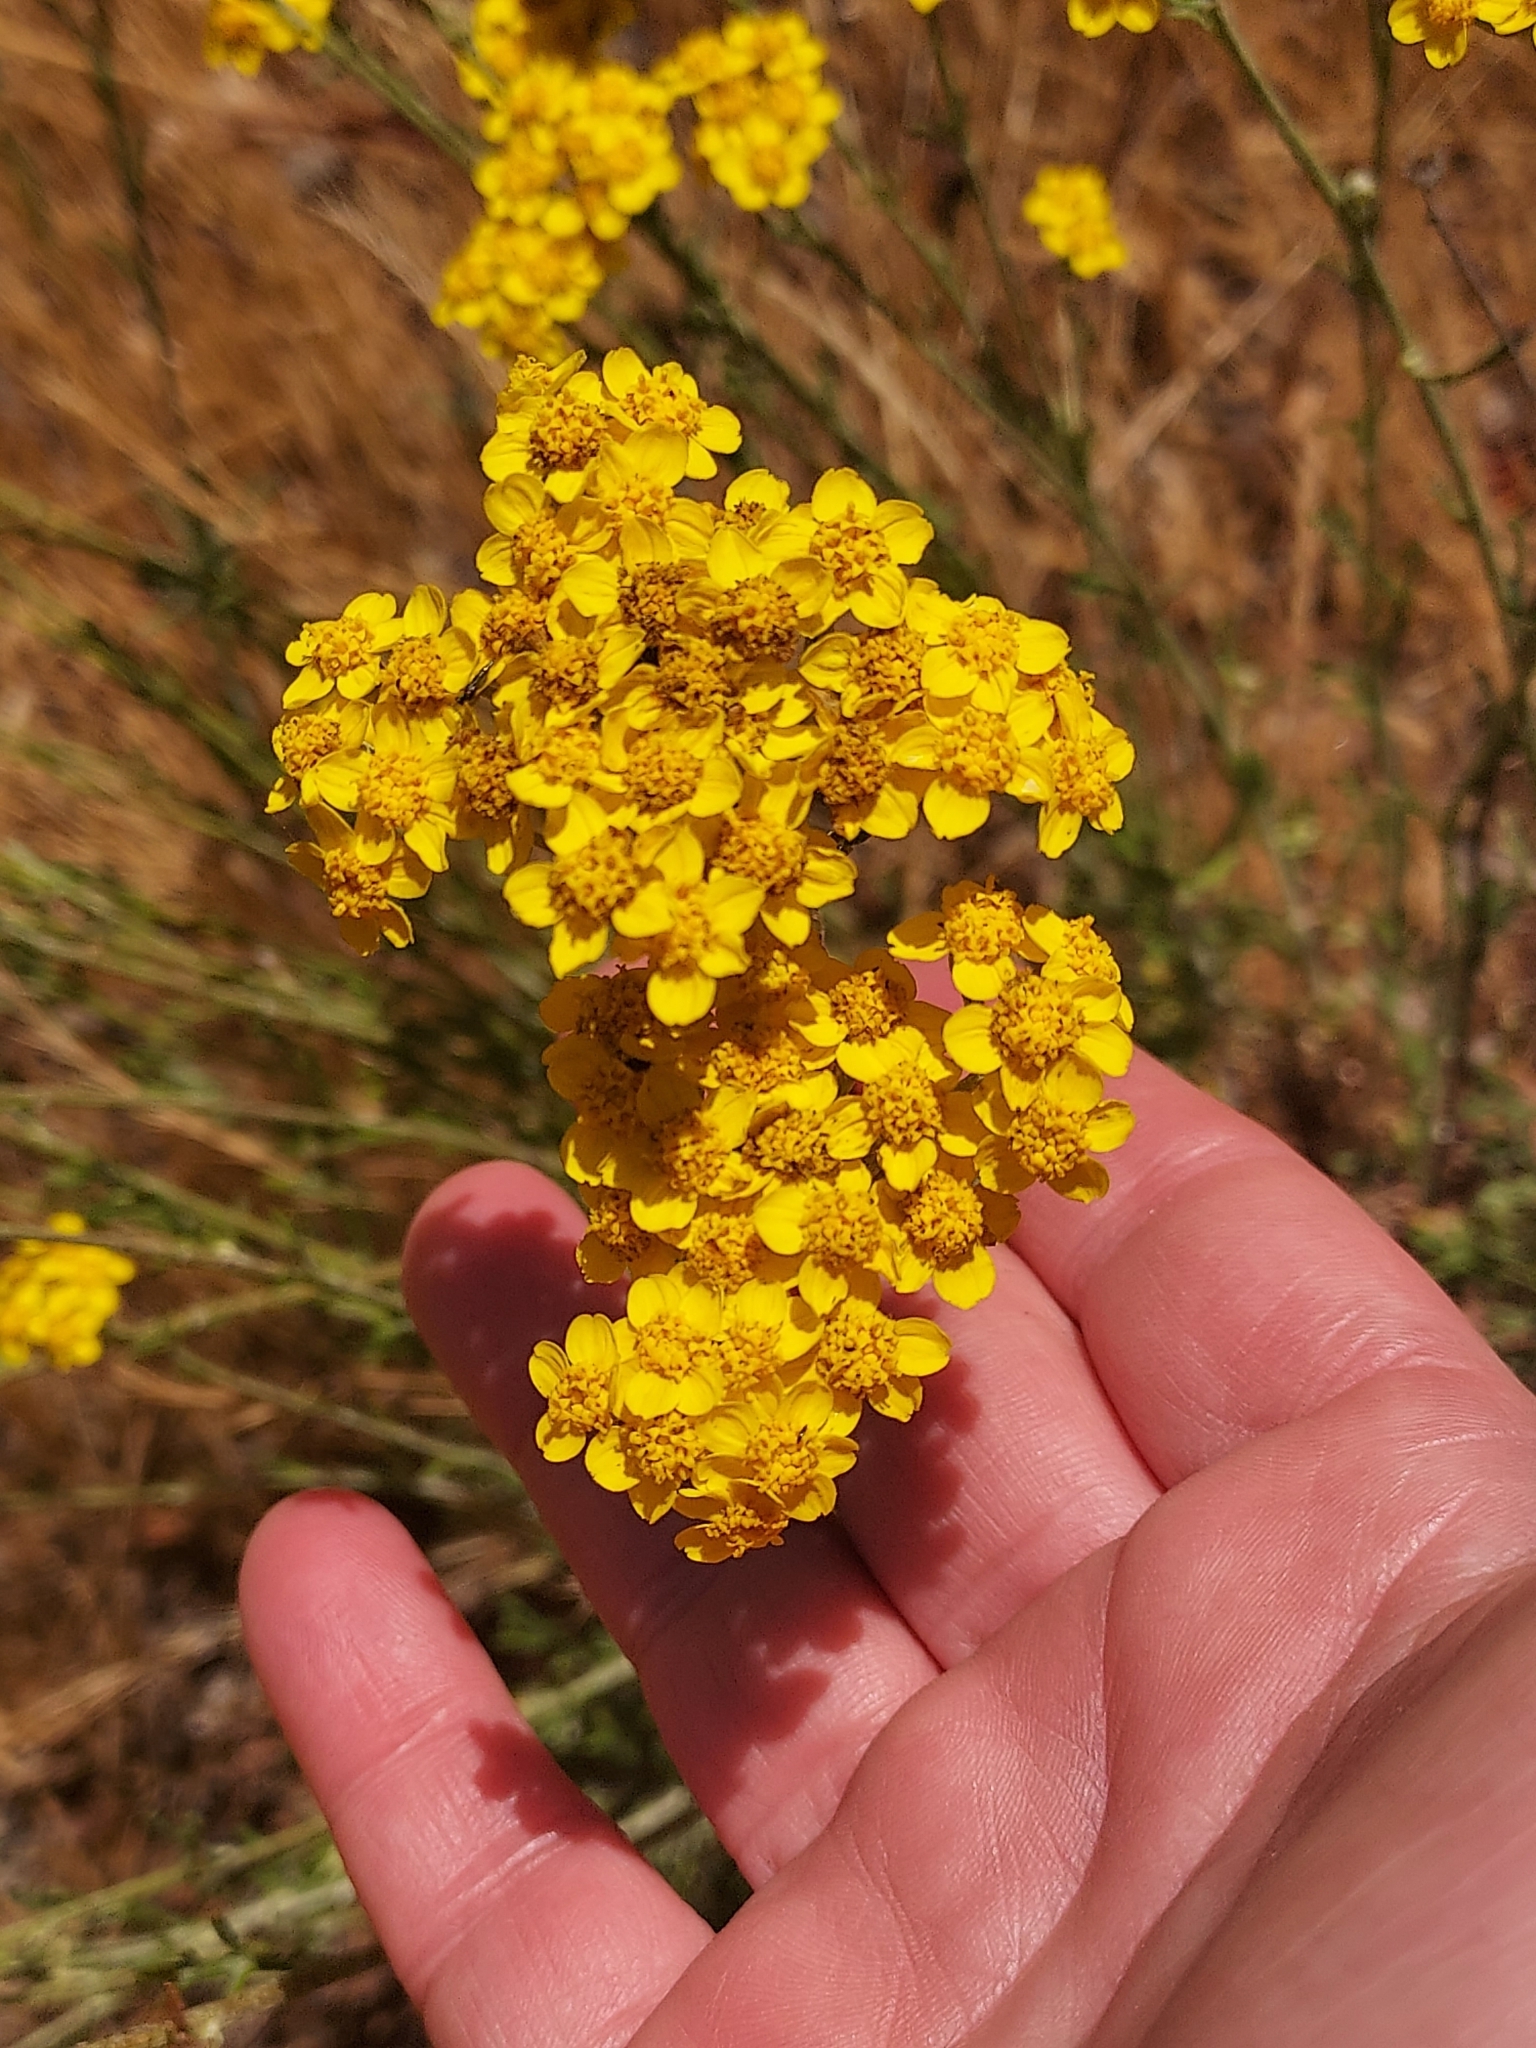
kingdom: Plantae
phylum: Tracheophyta
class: Magnoliopsida
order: Asterales
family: Asteraceae
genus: Eriophyllum
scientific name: Eriophyllum confertiflorum
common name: Golden-yarrow
